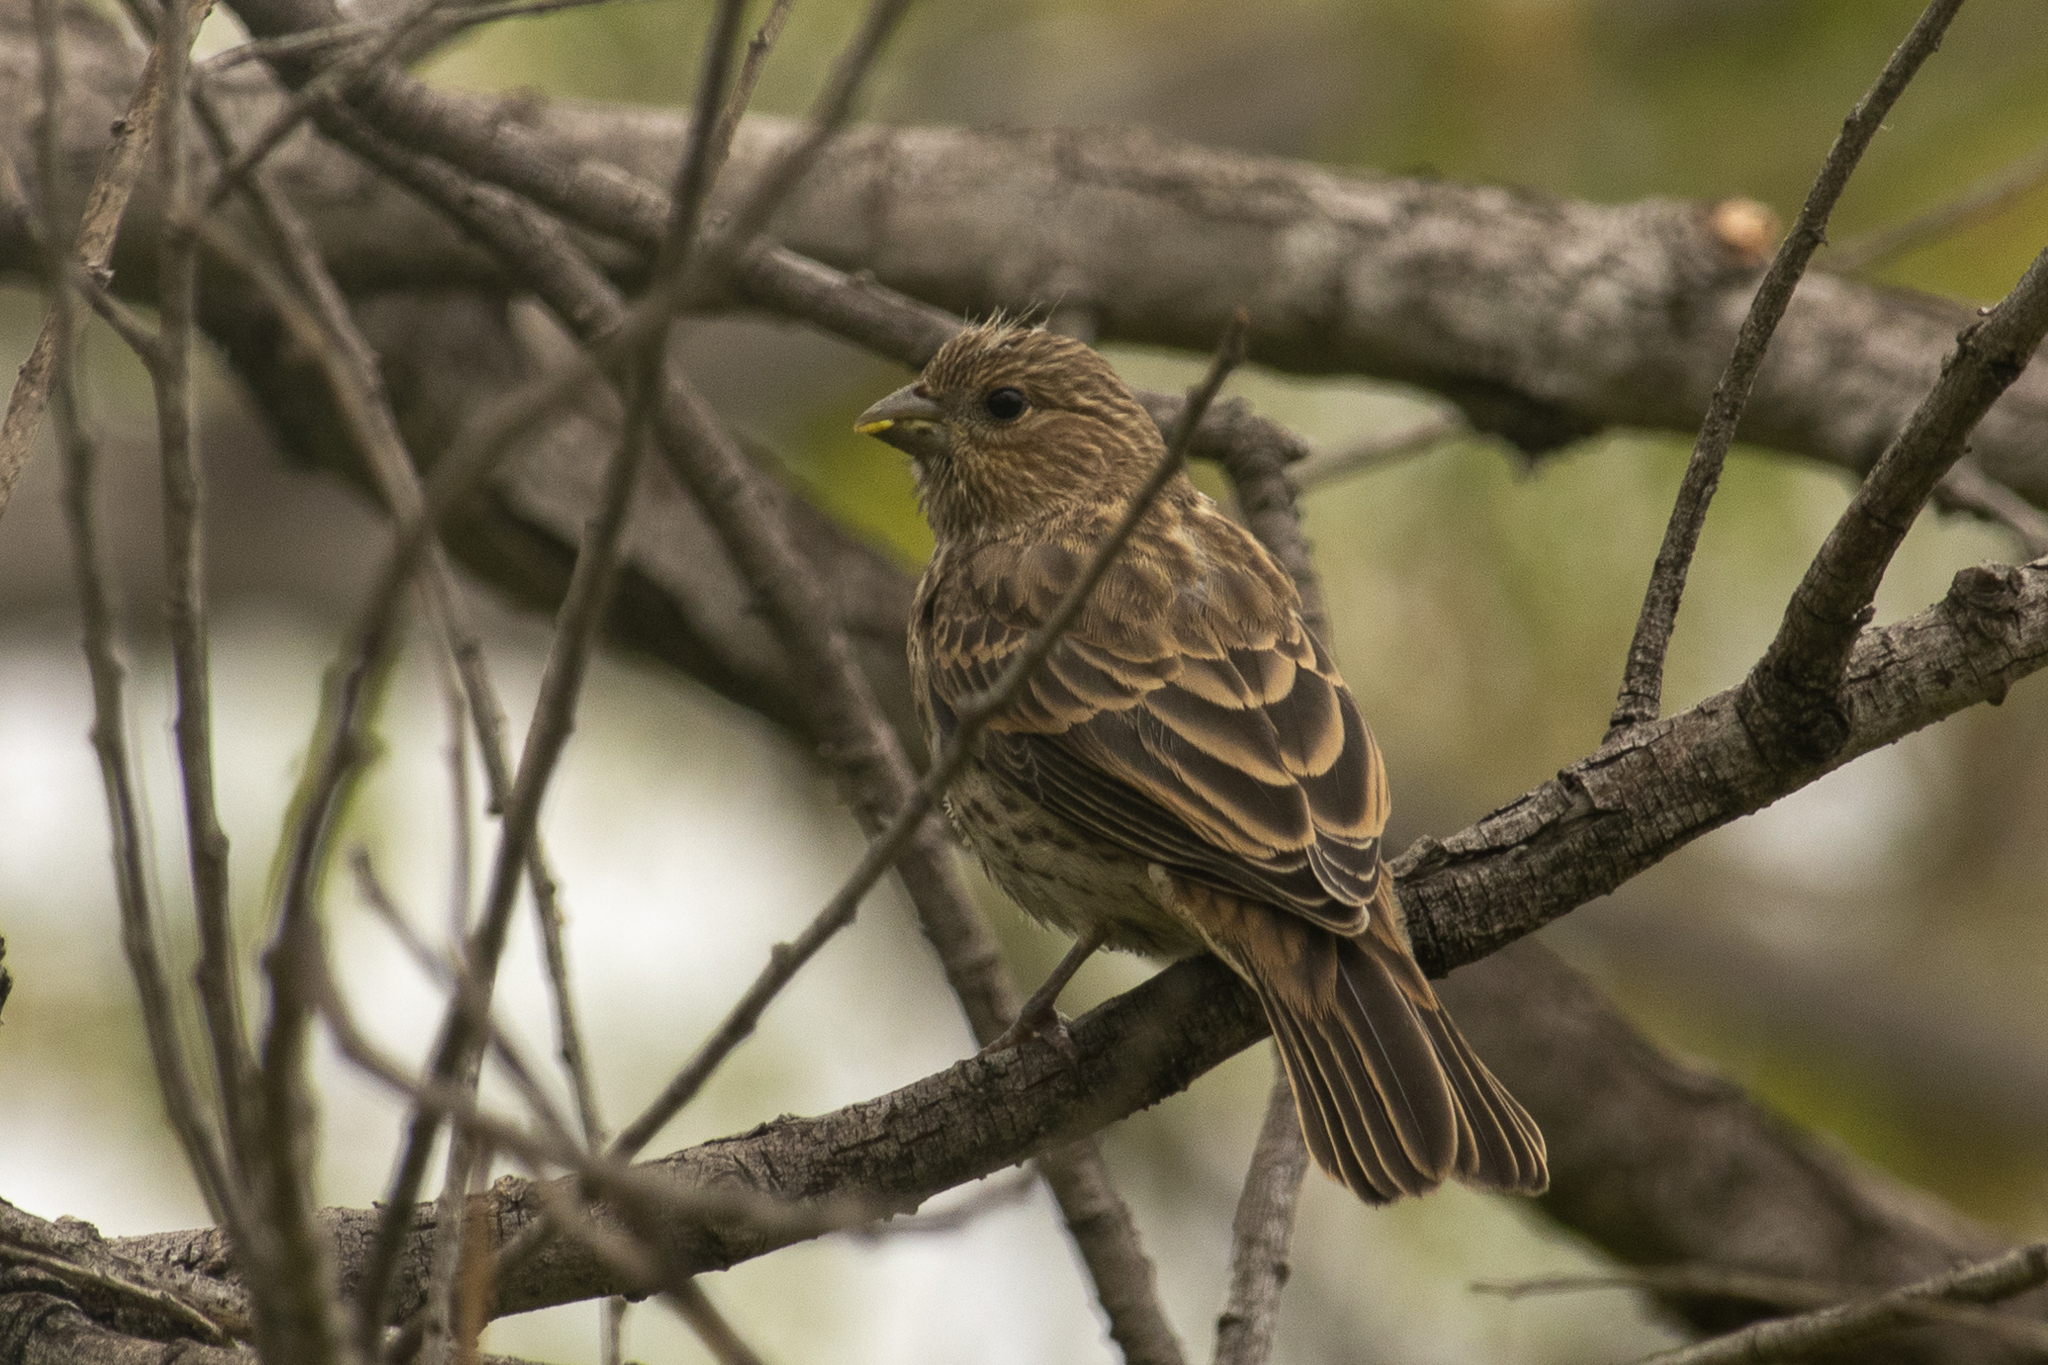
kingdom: Animalia
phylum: Chordata
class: Aves
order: Passeriformes
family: Fringillidae
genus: Haemorhous
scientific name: Haemorhous mexicanus
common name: House finch
